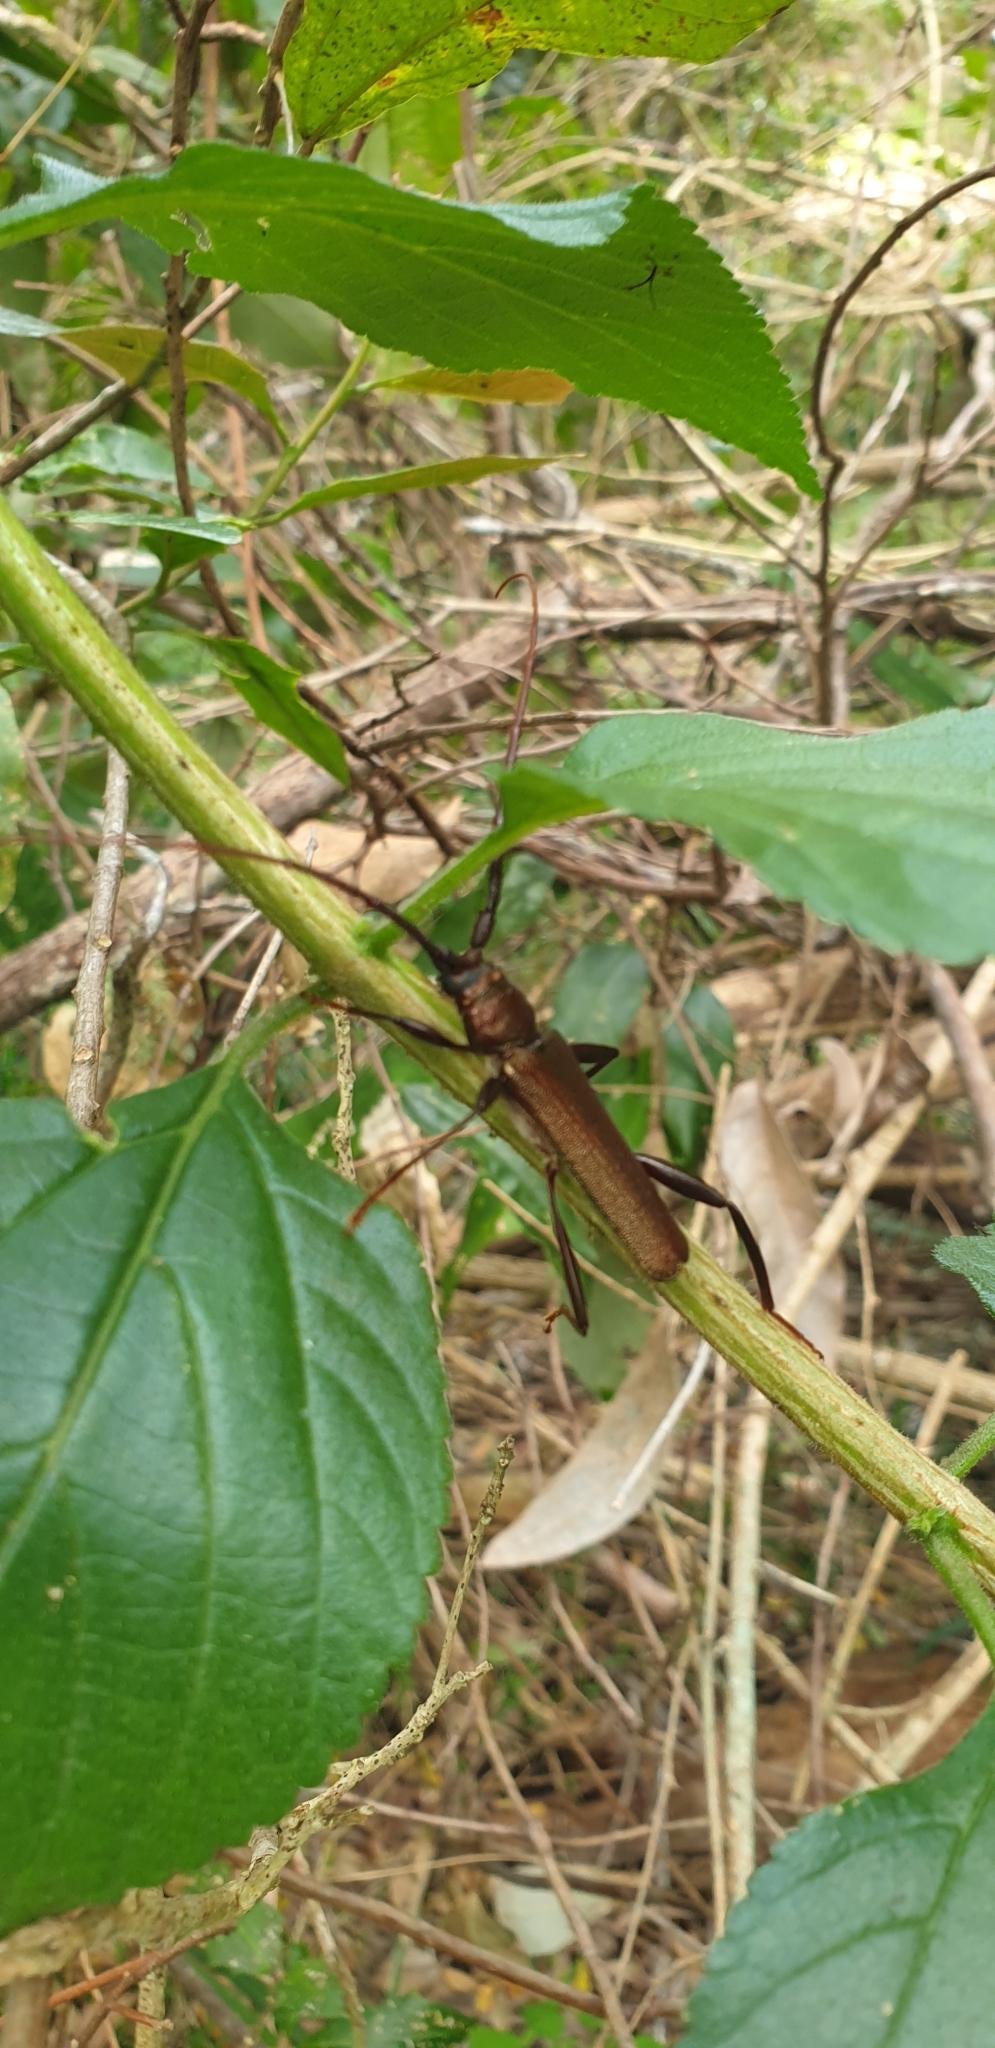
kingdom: Animalia
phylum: Arthropoda
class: Insecta
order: Coleoptera
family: Cerambycidae
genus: Xystrocera
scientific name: Xystrocera virescens
